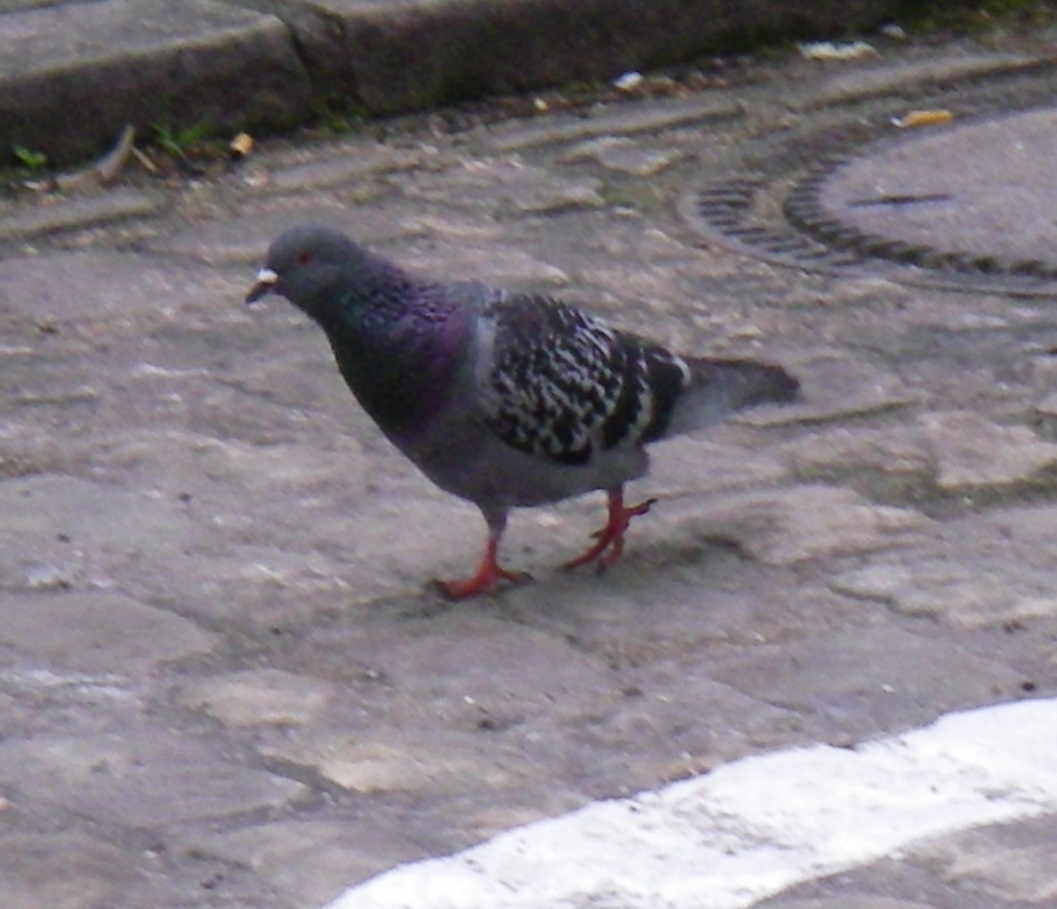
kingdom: Animalia
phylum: Chordata
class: Aves
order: Columbiformes
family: Columbidae
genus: Columba
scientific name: Columba livia
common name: Rock pigeon
